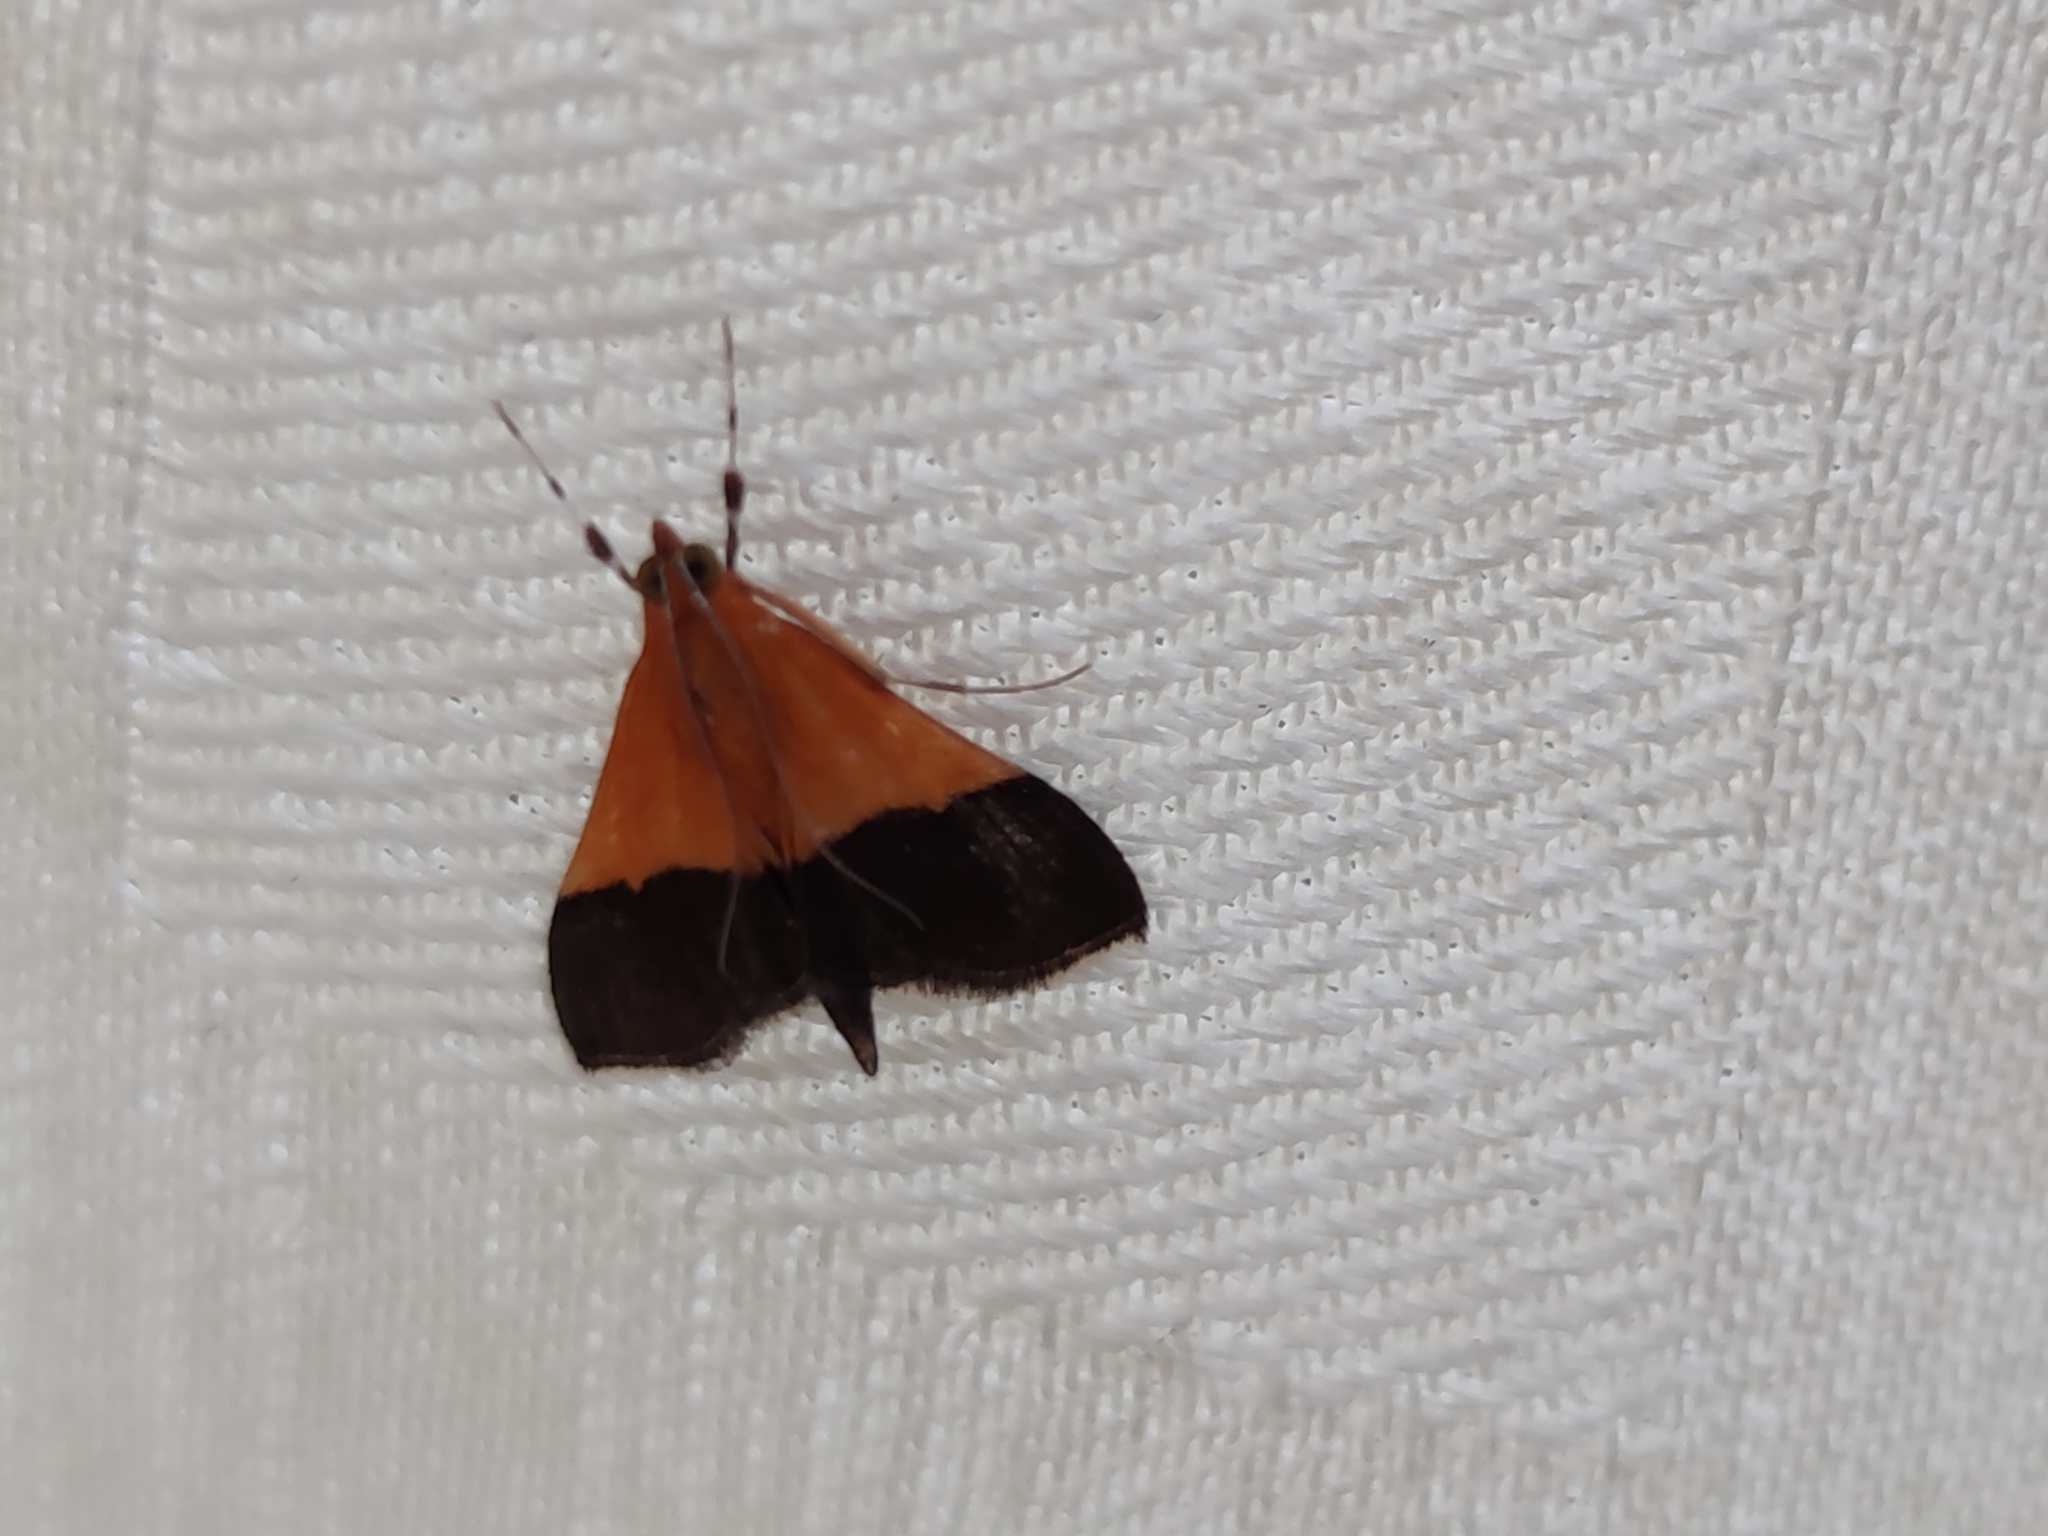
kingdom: Animalia
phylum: Arthropoda
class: Insecta
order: Lepidoptera
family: Crambidae
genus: Pyrausta
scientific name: Pyrausta augustalis
